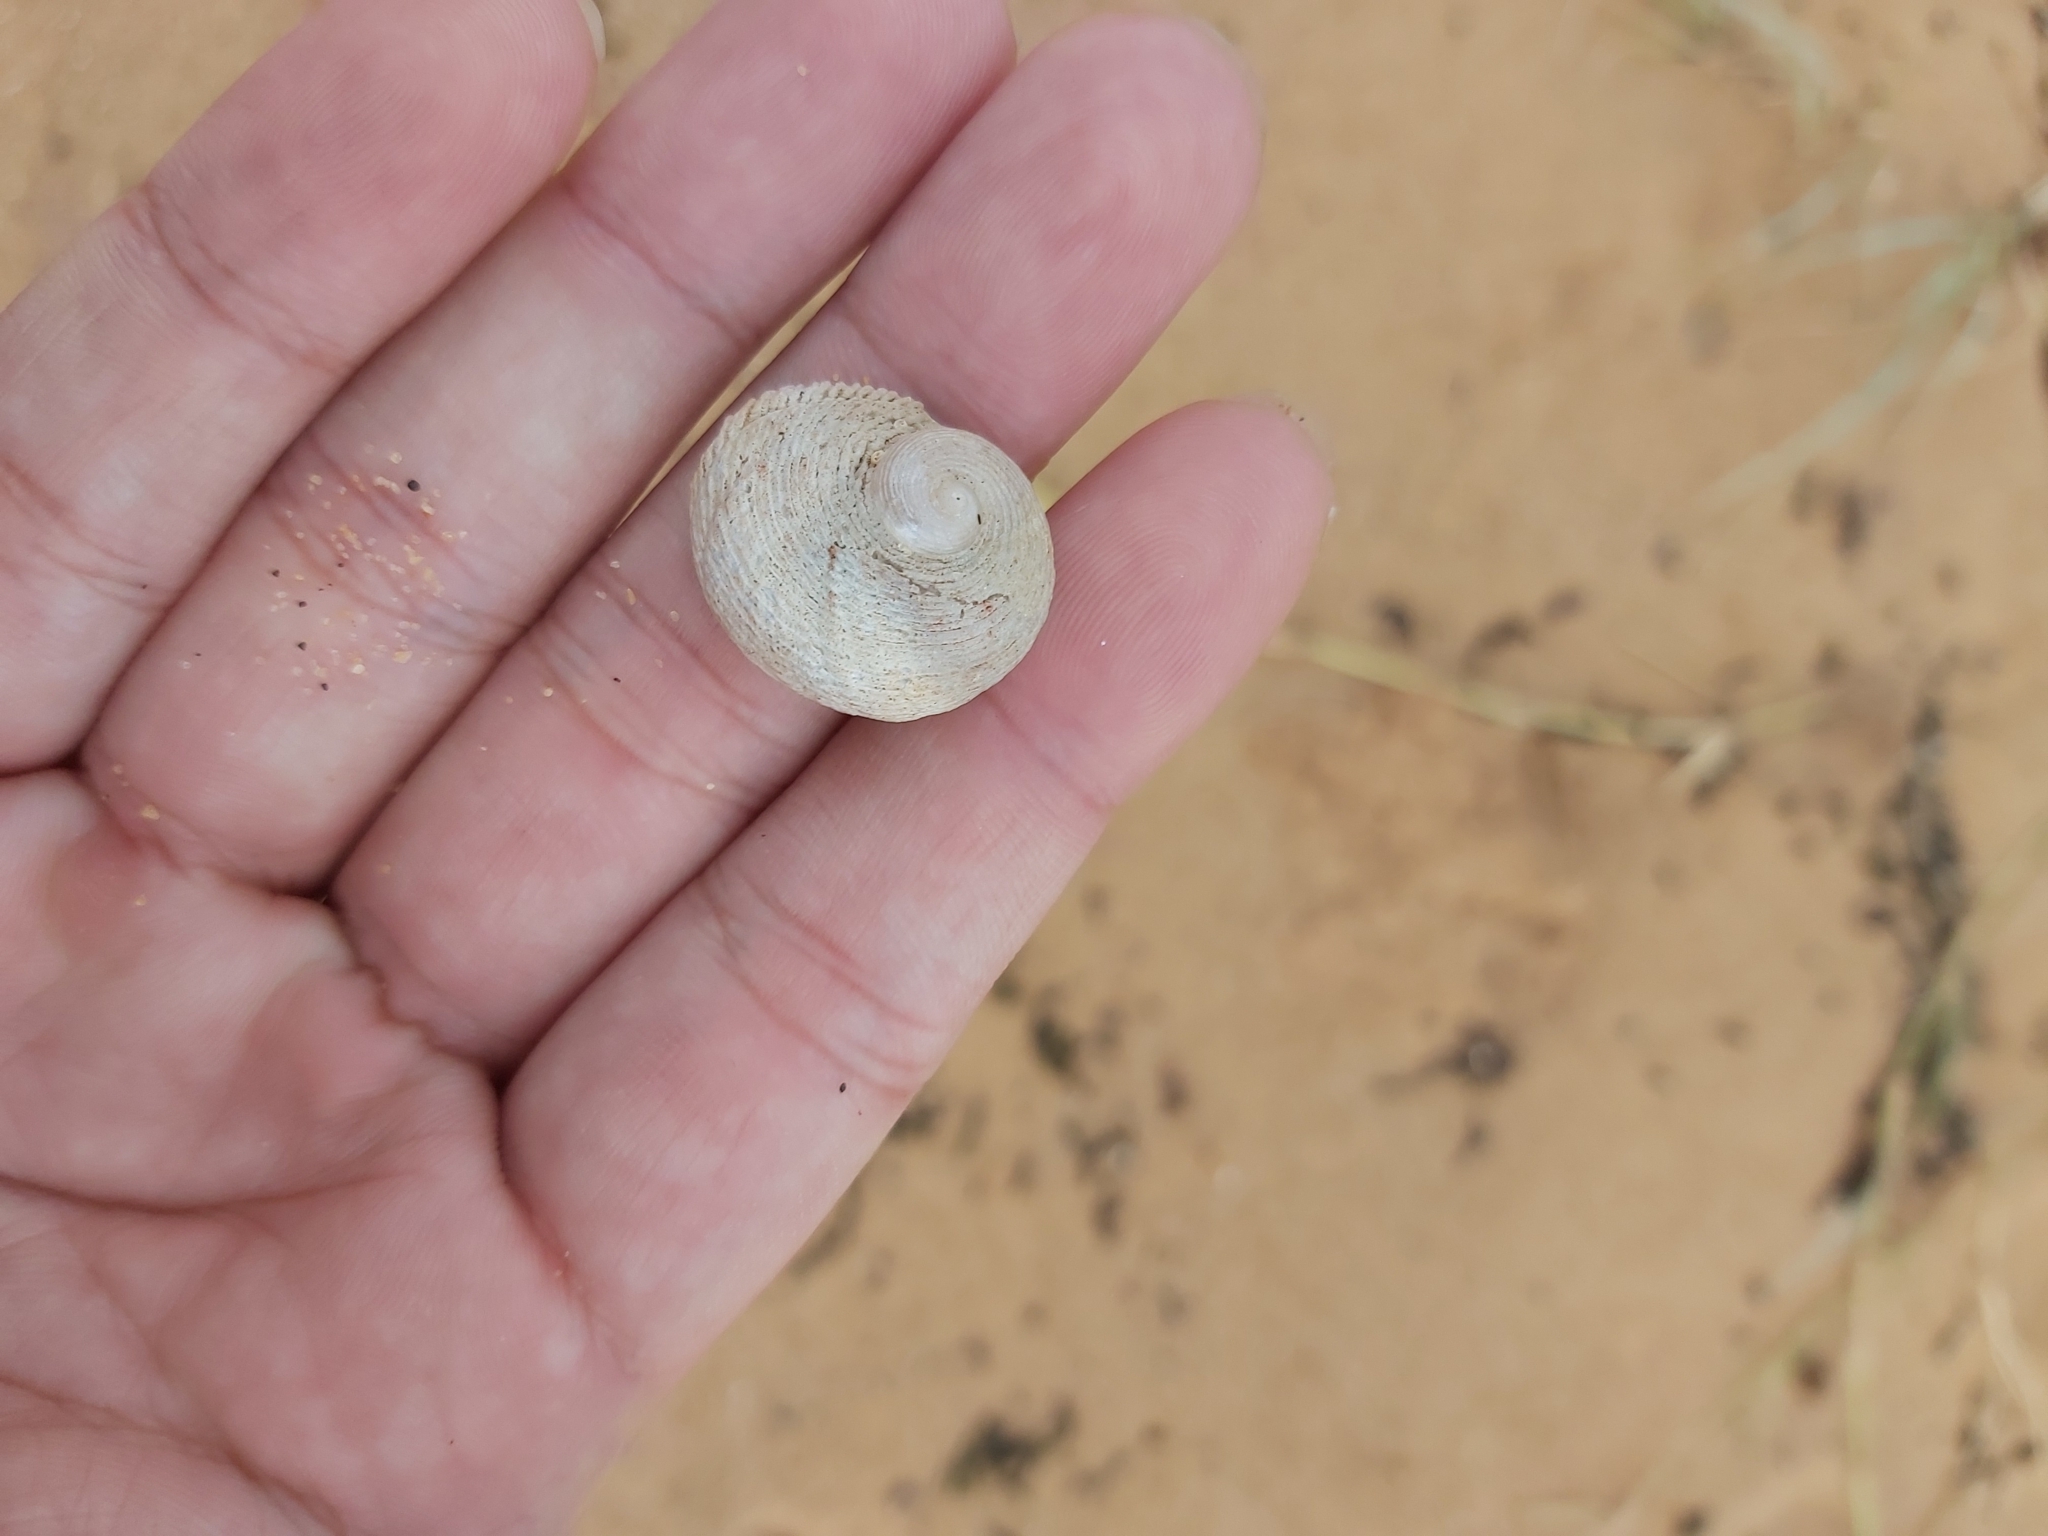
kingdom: Animalia
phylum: Mollusca
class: Gastropoda
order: Seguenziida
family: Chilodontaidae
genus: Granata
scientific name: Granata imbricata
